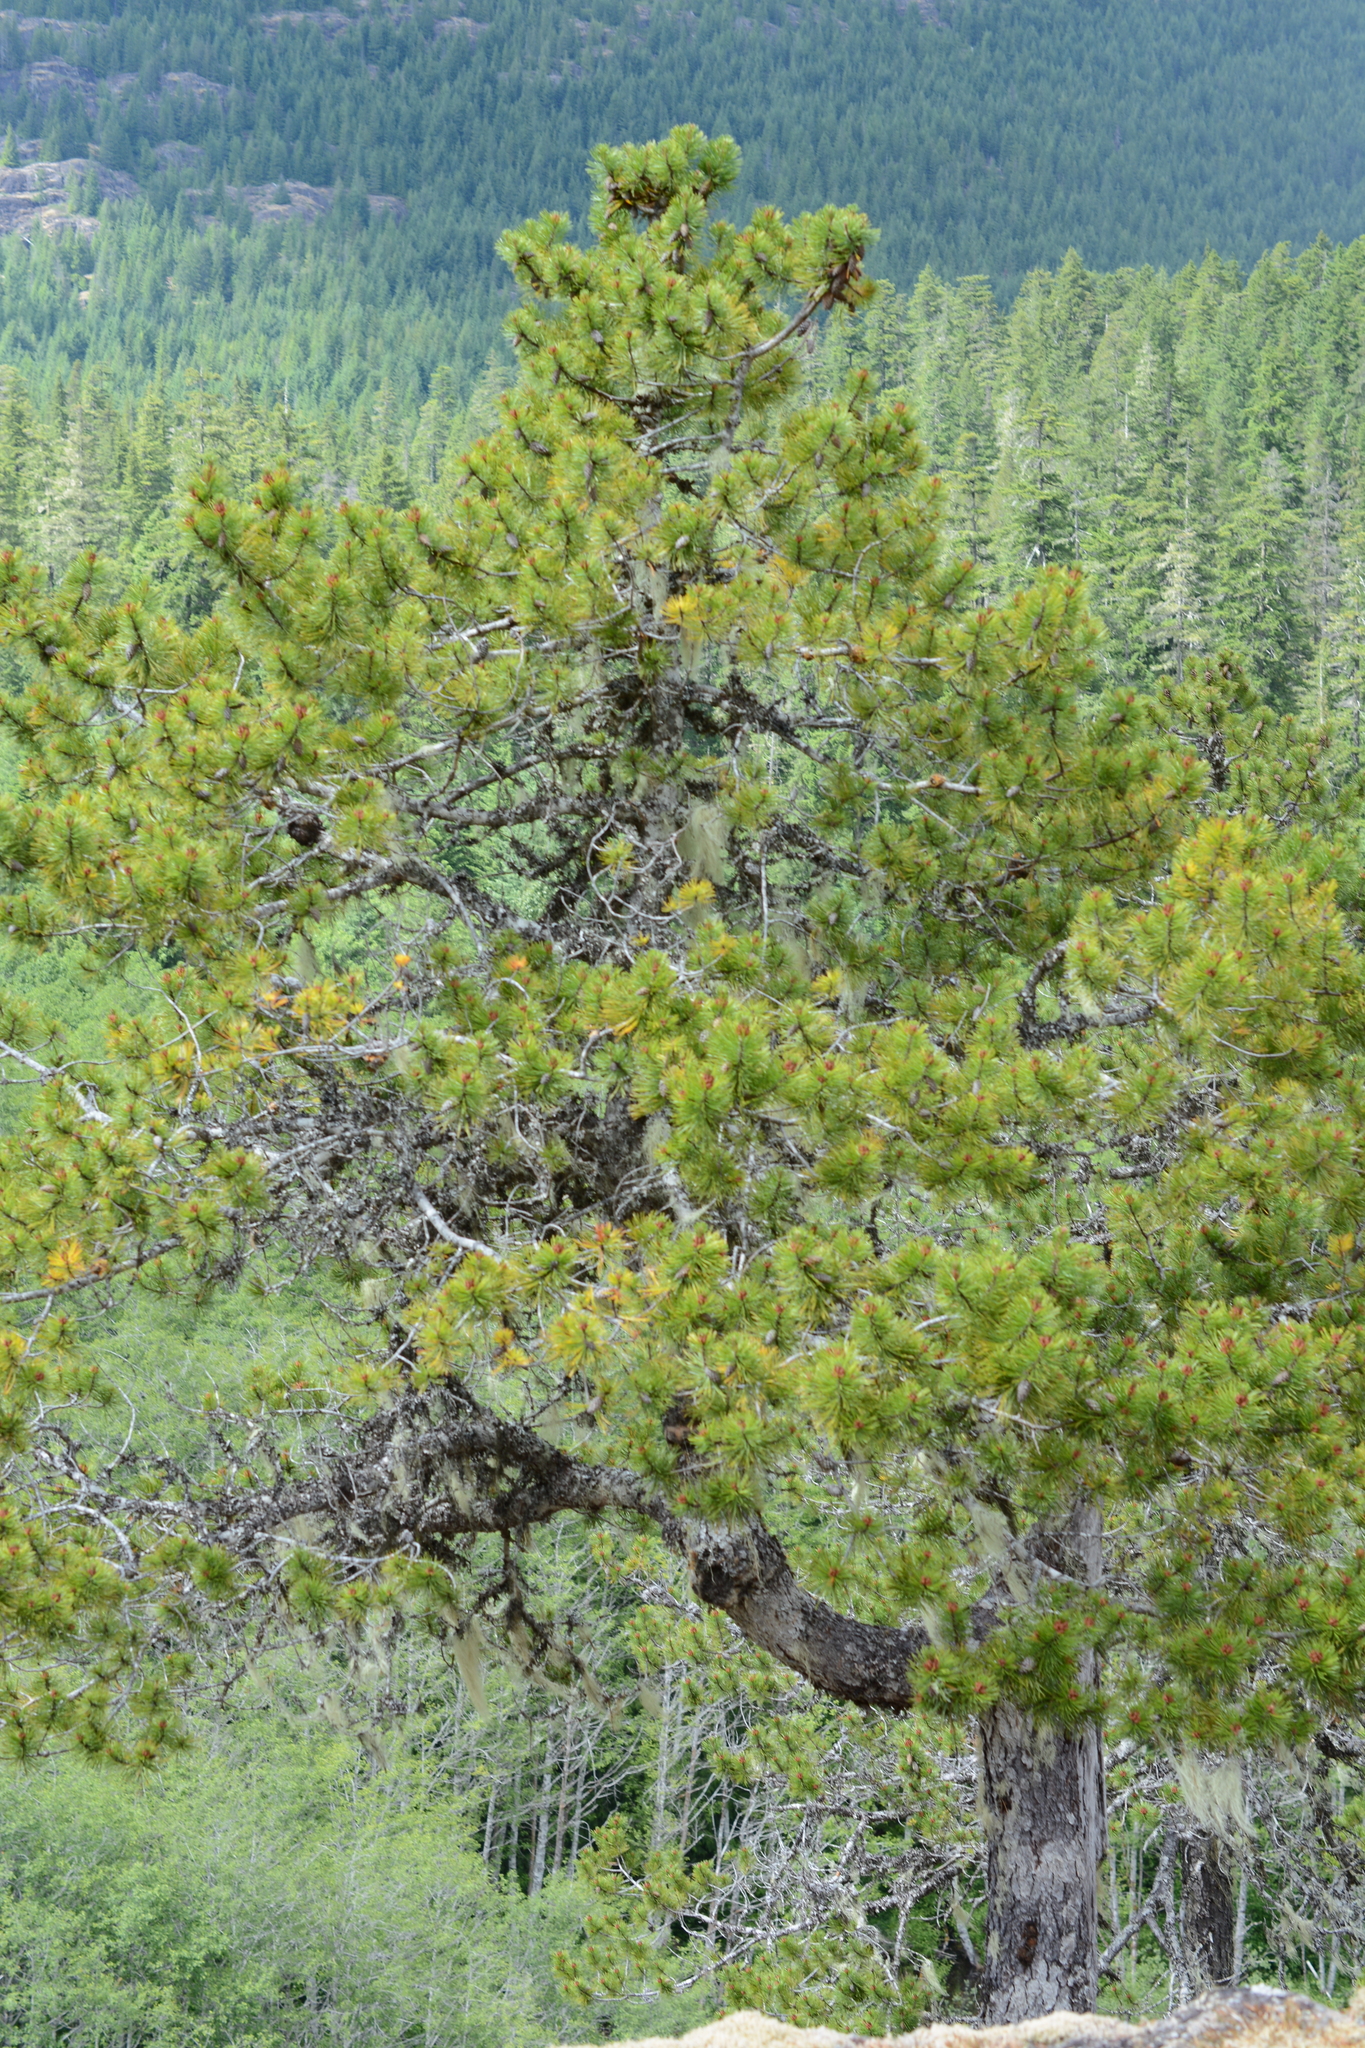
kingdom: Plantae
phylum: Tracheophyta
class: Pinopsida
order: Pinales
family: Pinaceae
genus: Pinus
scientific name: Pinus contorta
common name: Lodgepole pine
